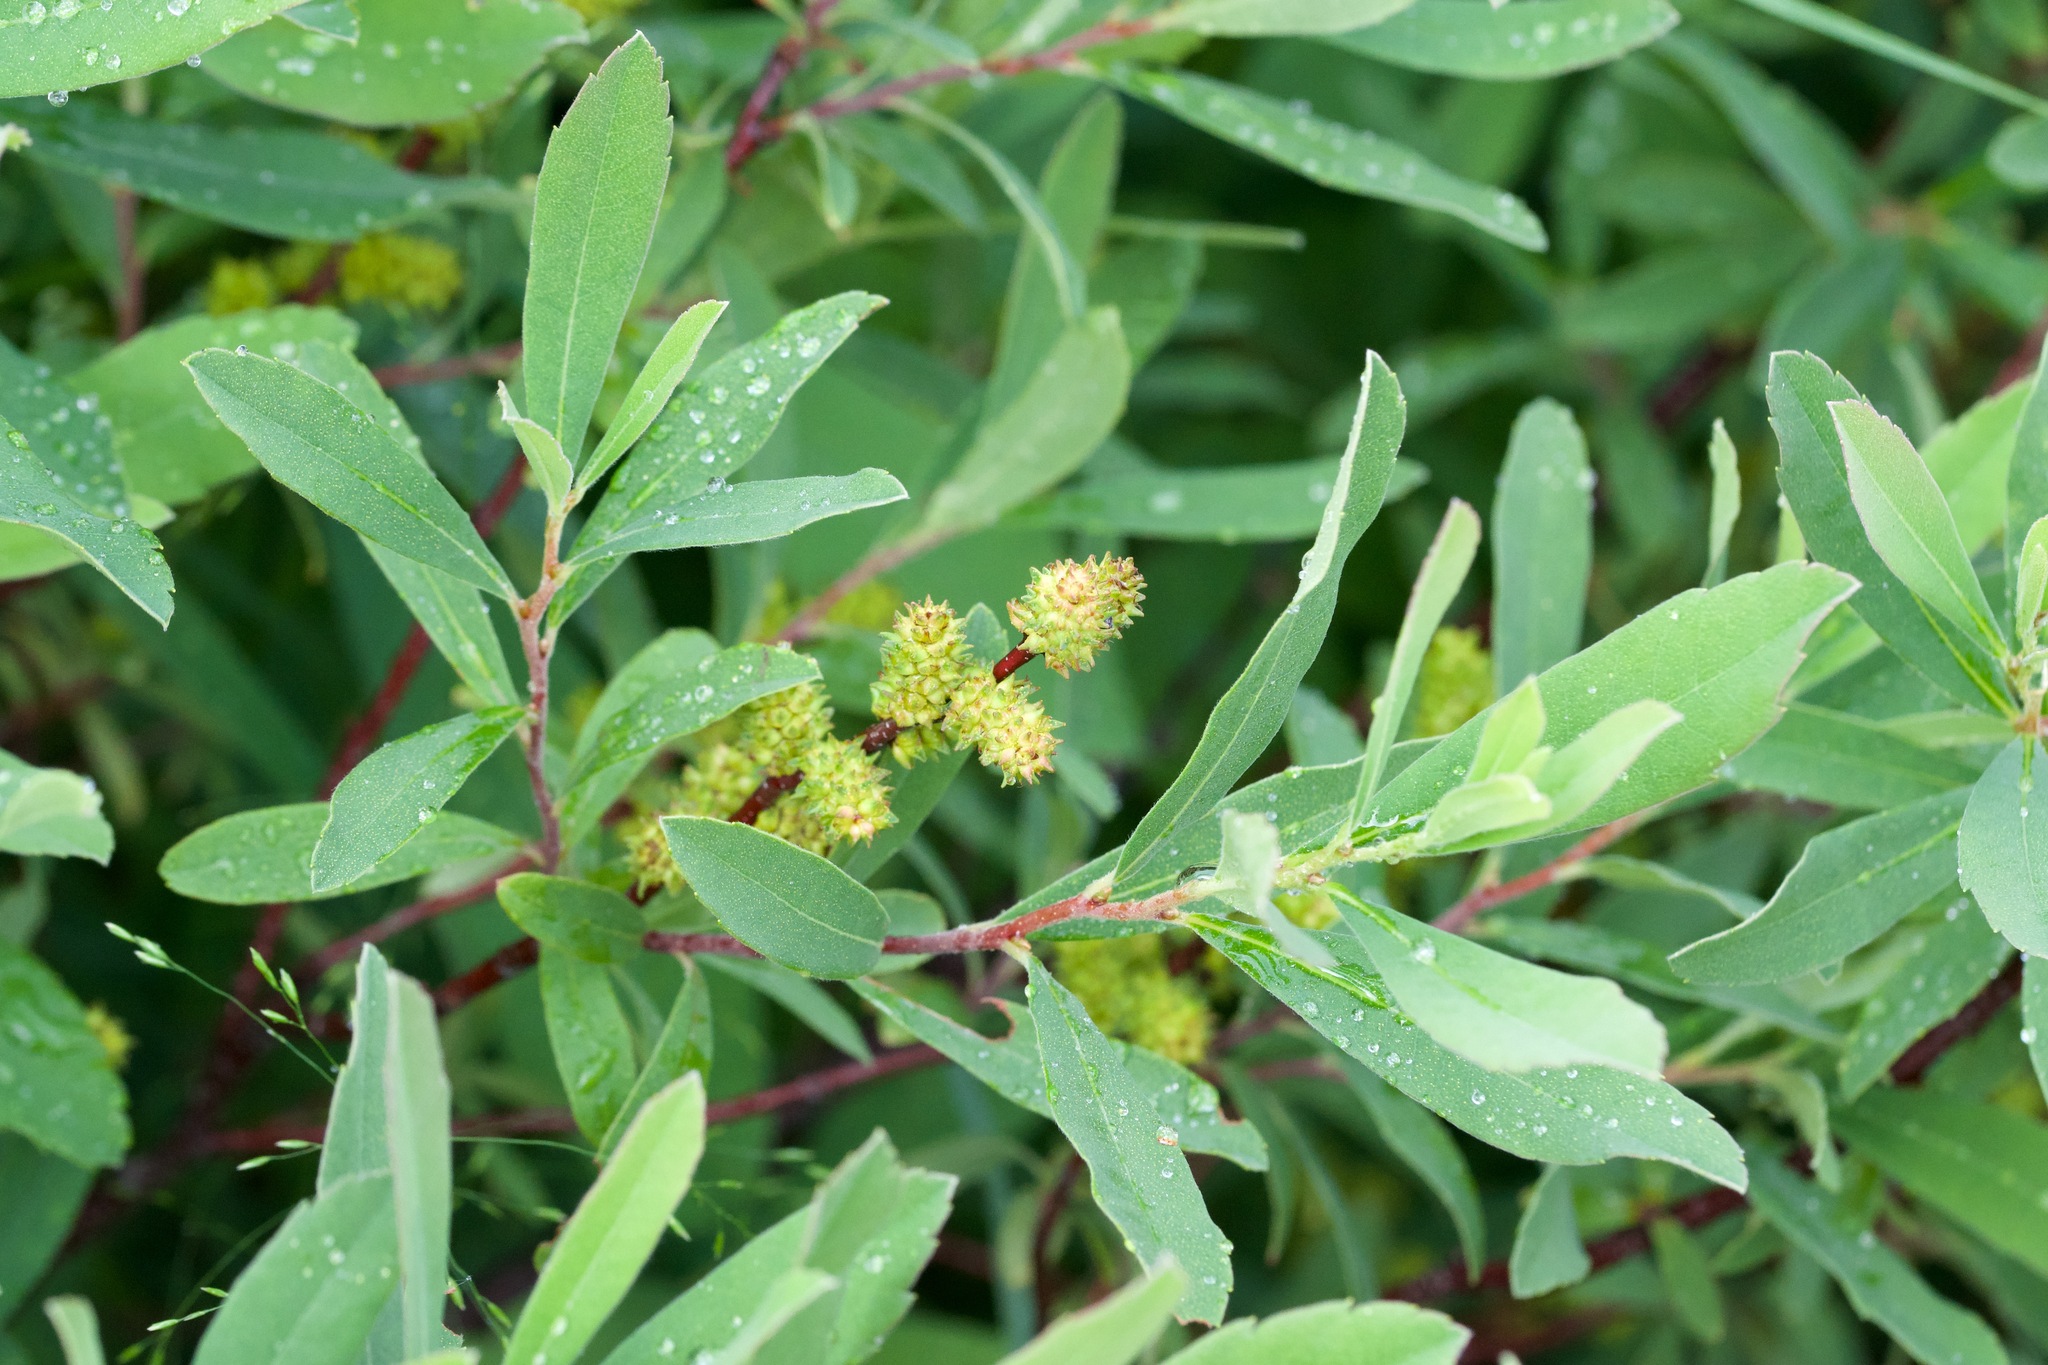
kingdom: Plantae
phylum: Tracheophyta
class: Magnoliopsida
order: Fagales
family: Myricaceae
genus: Myrica
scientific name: Myrica gale
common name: Sweet gale
